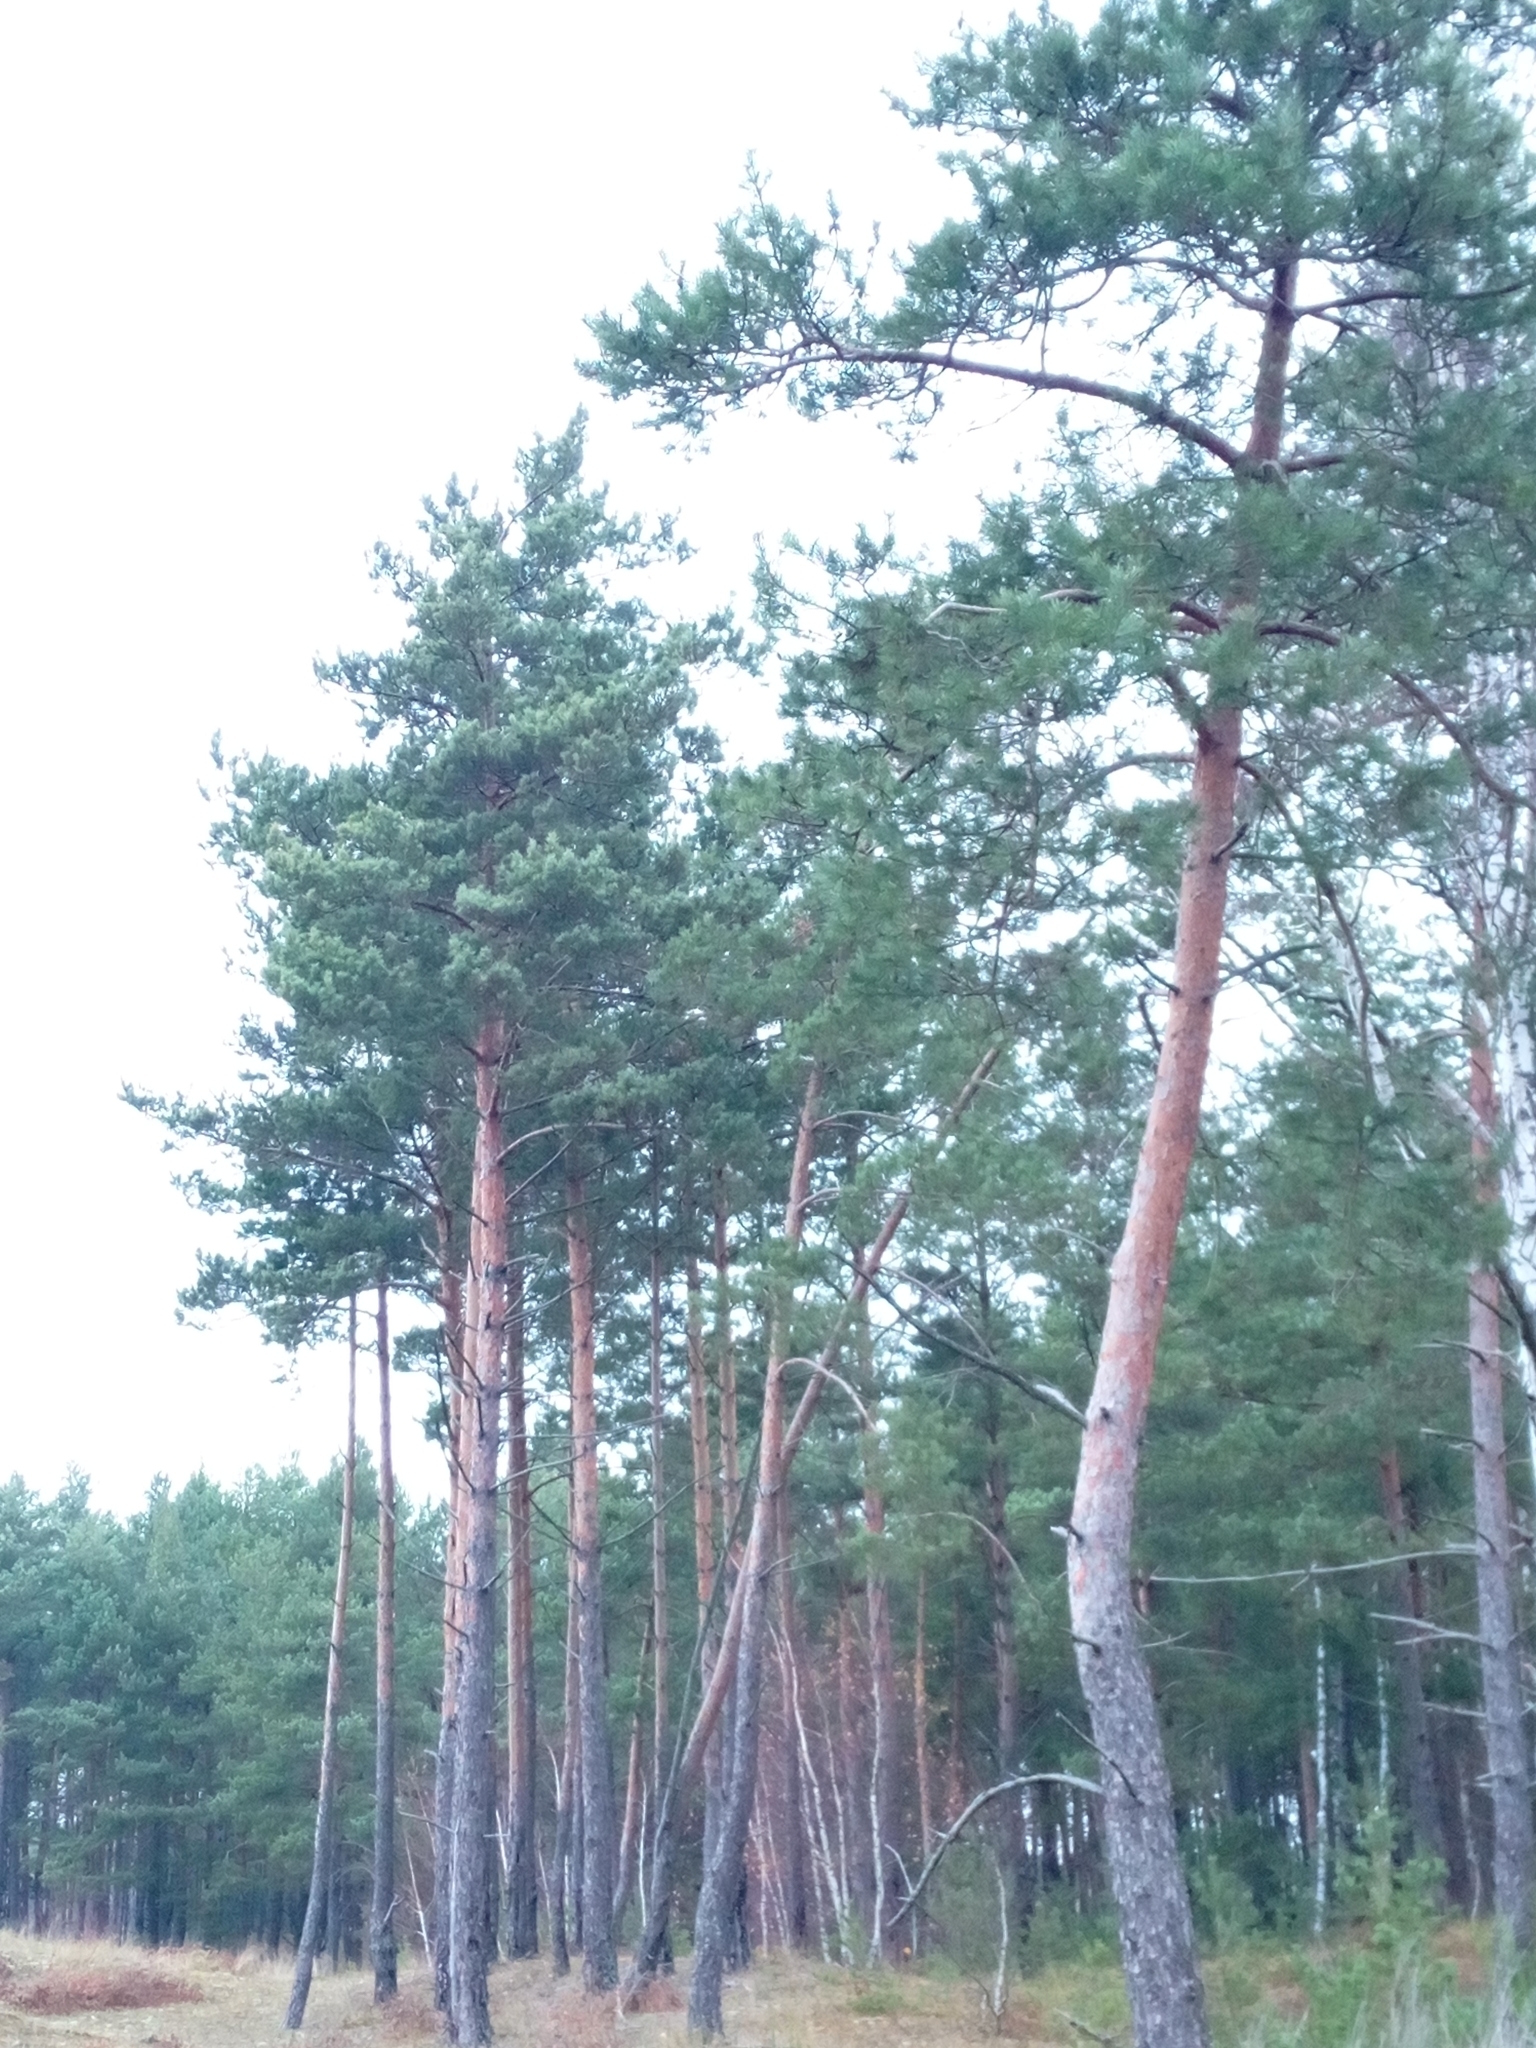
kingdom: Plantae
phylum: Tracheophyta
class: Pinopsida
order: Pinales
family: Pinaceae
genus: Pinus
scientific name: Pinus sylvestris
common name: Scots pine
